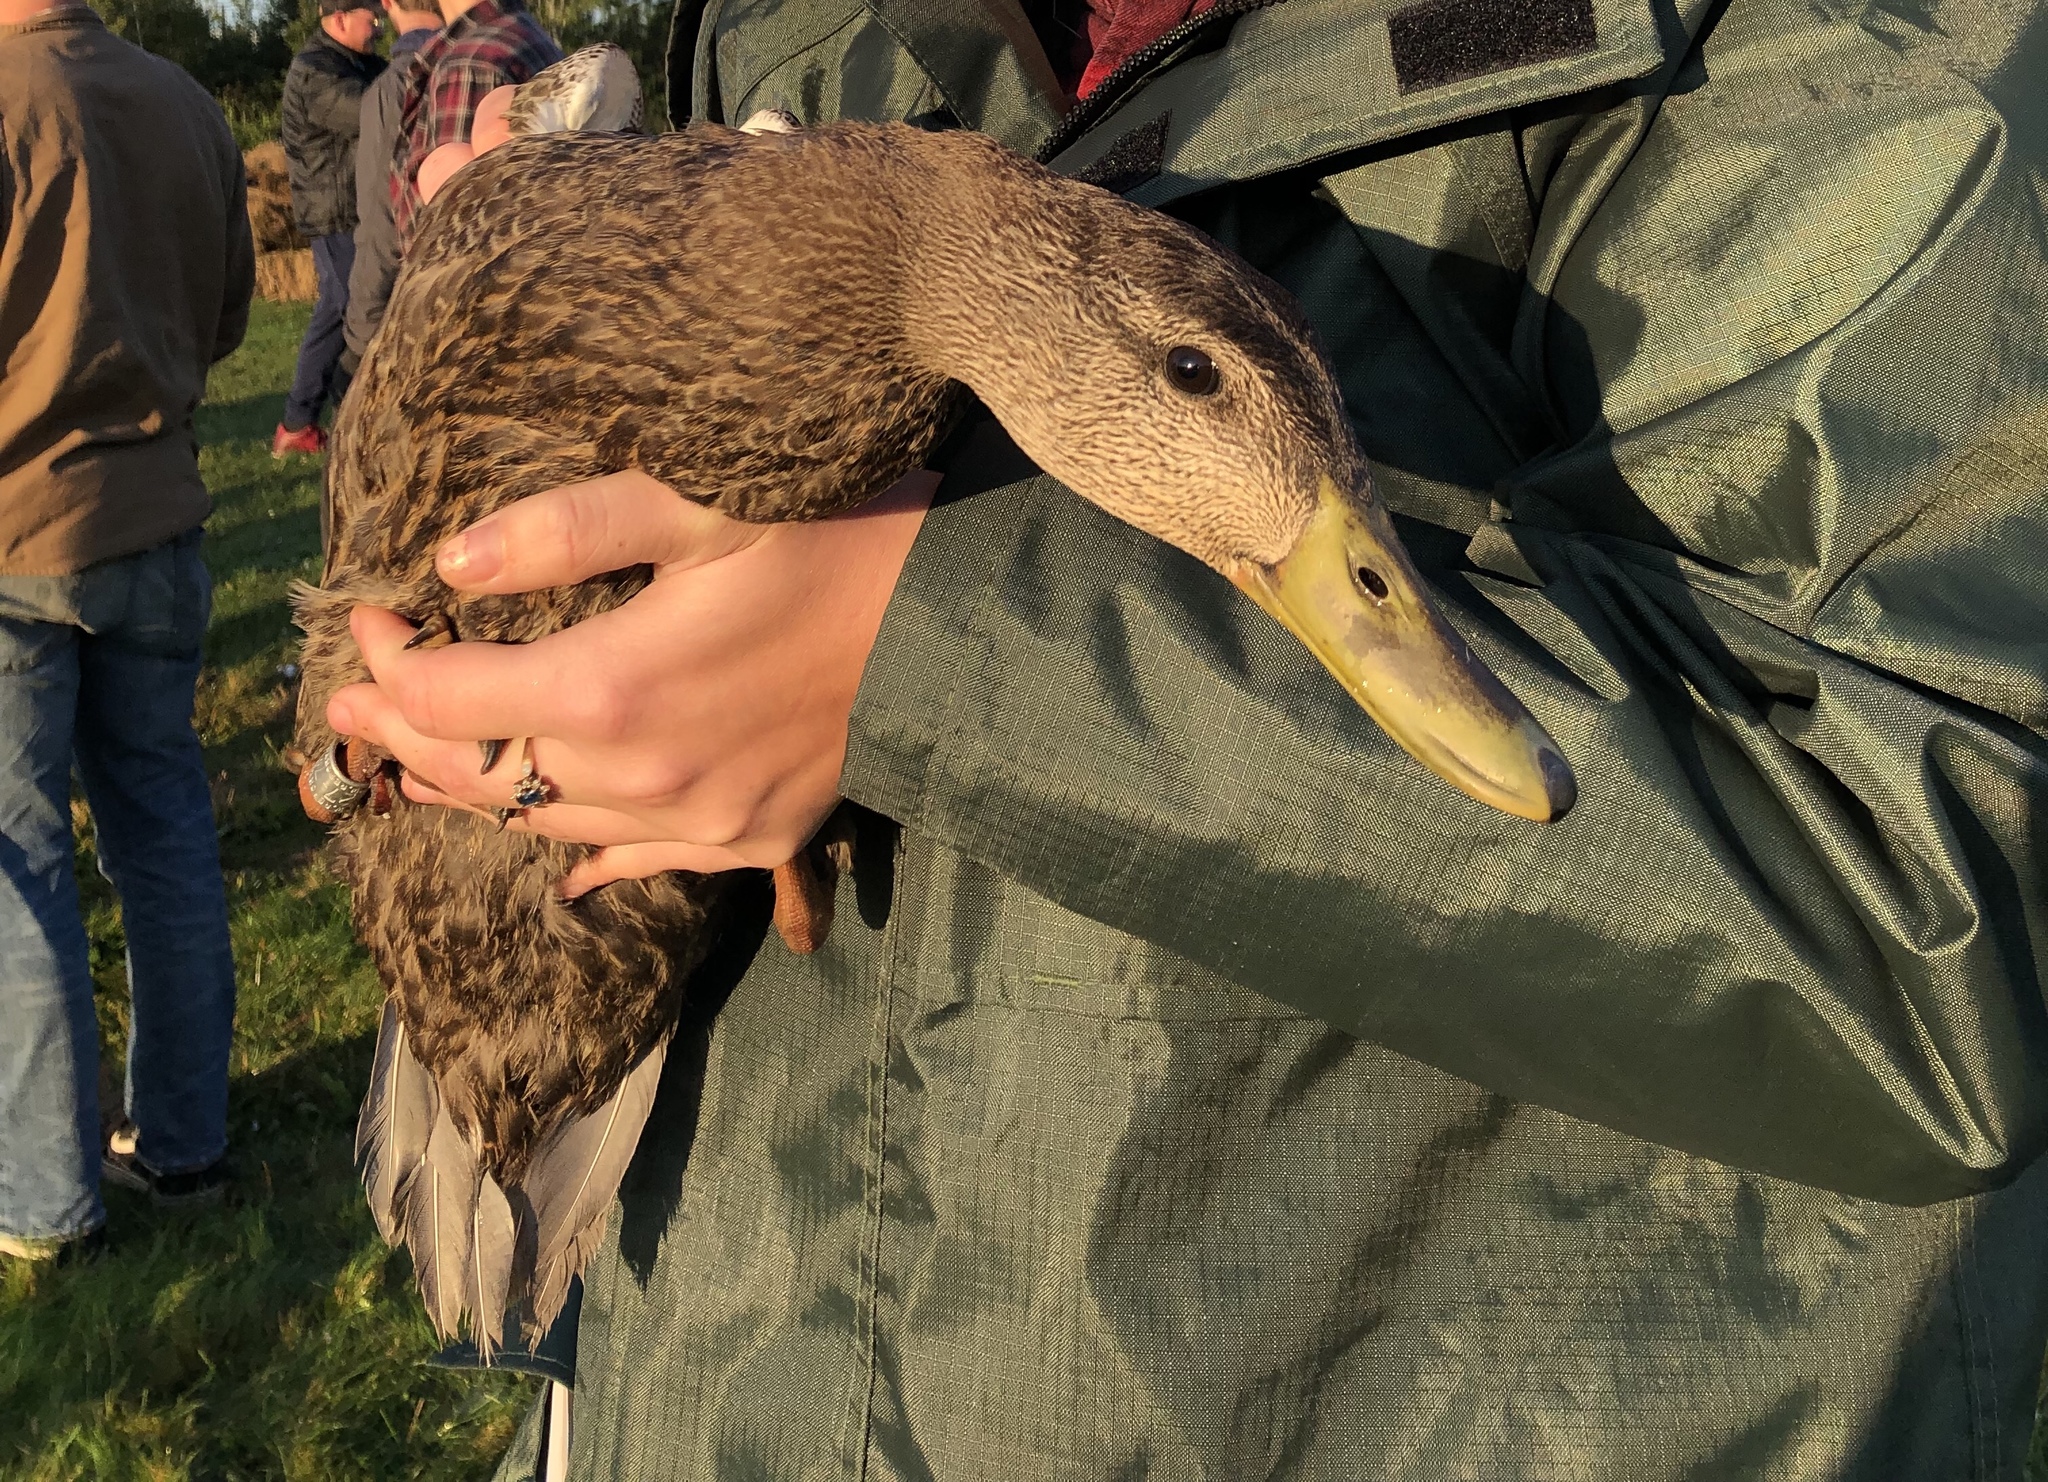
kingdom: Animalia
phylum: Chordata
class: Aves
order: Anseriformes
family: Anatidae
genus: Anas
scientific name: Anas rubripes
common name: American black duck
